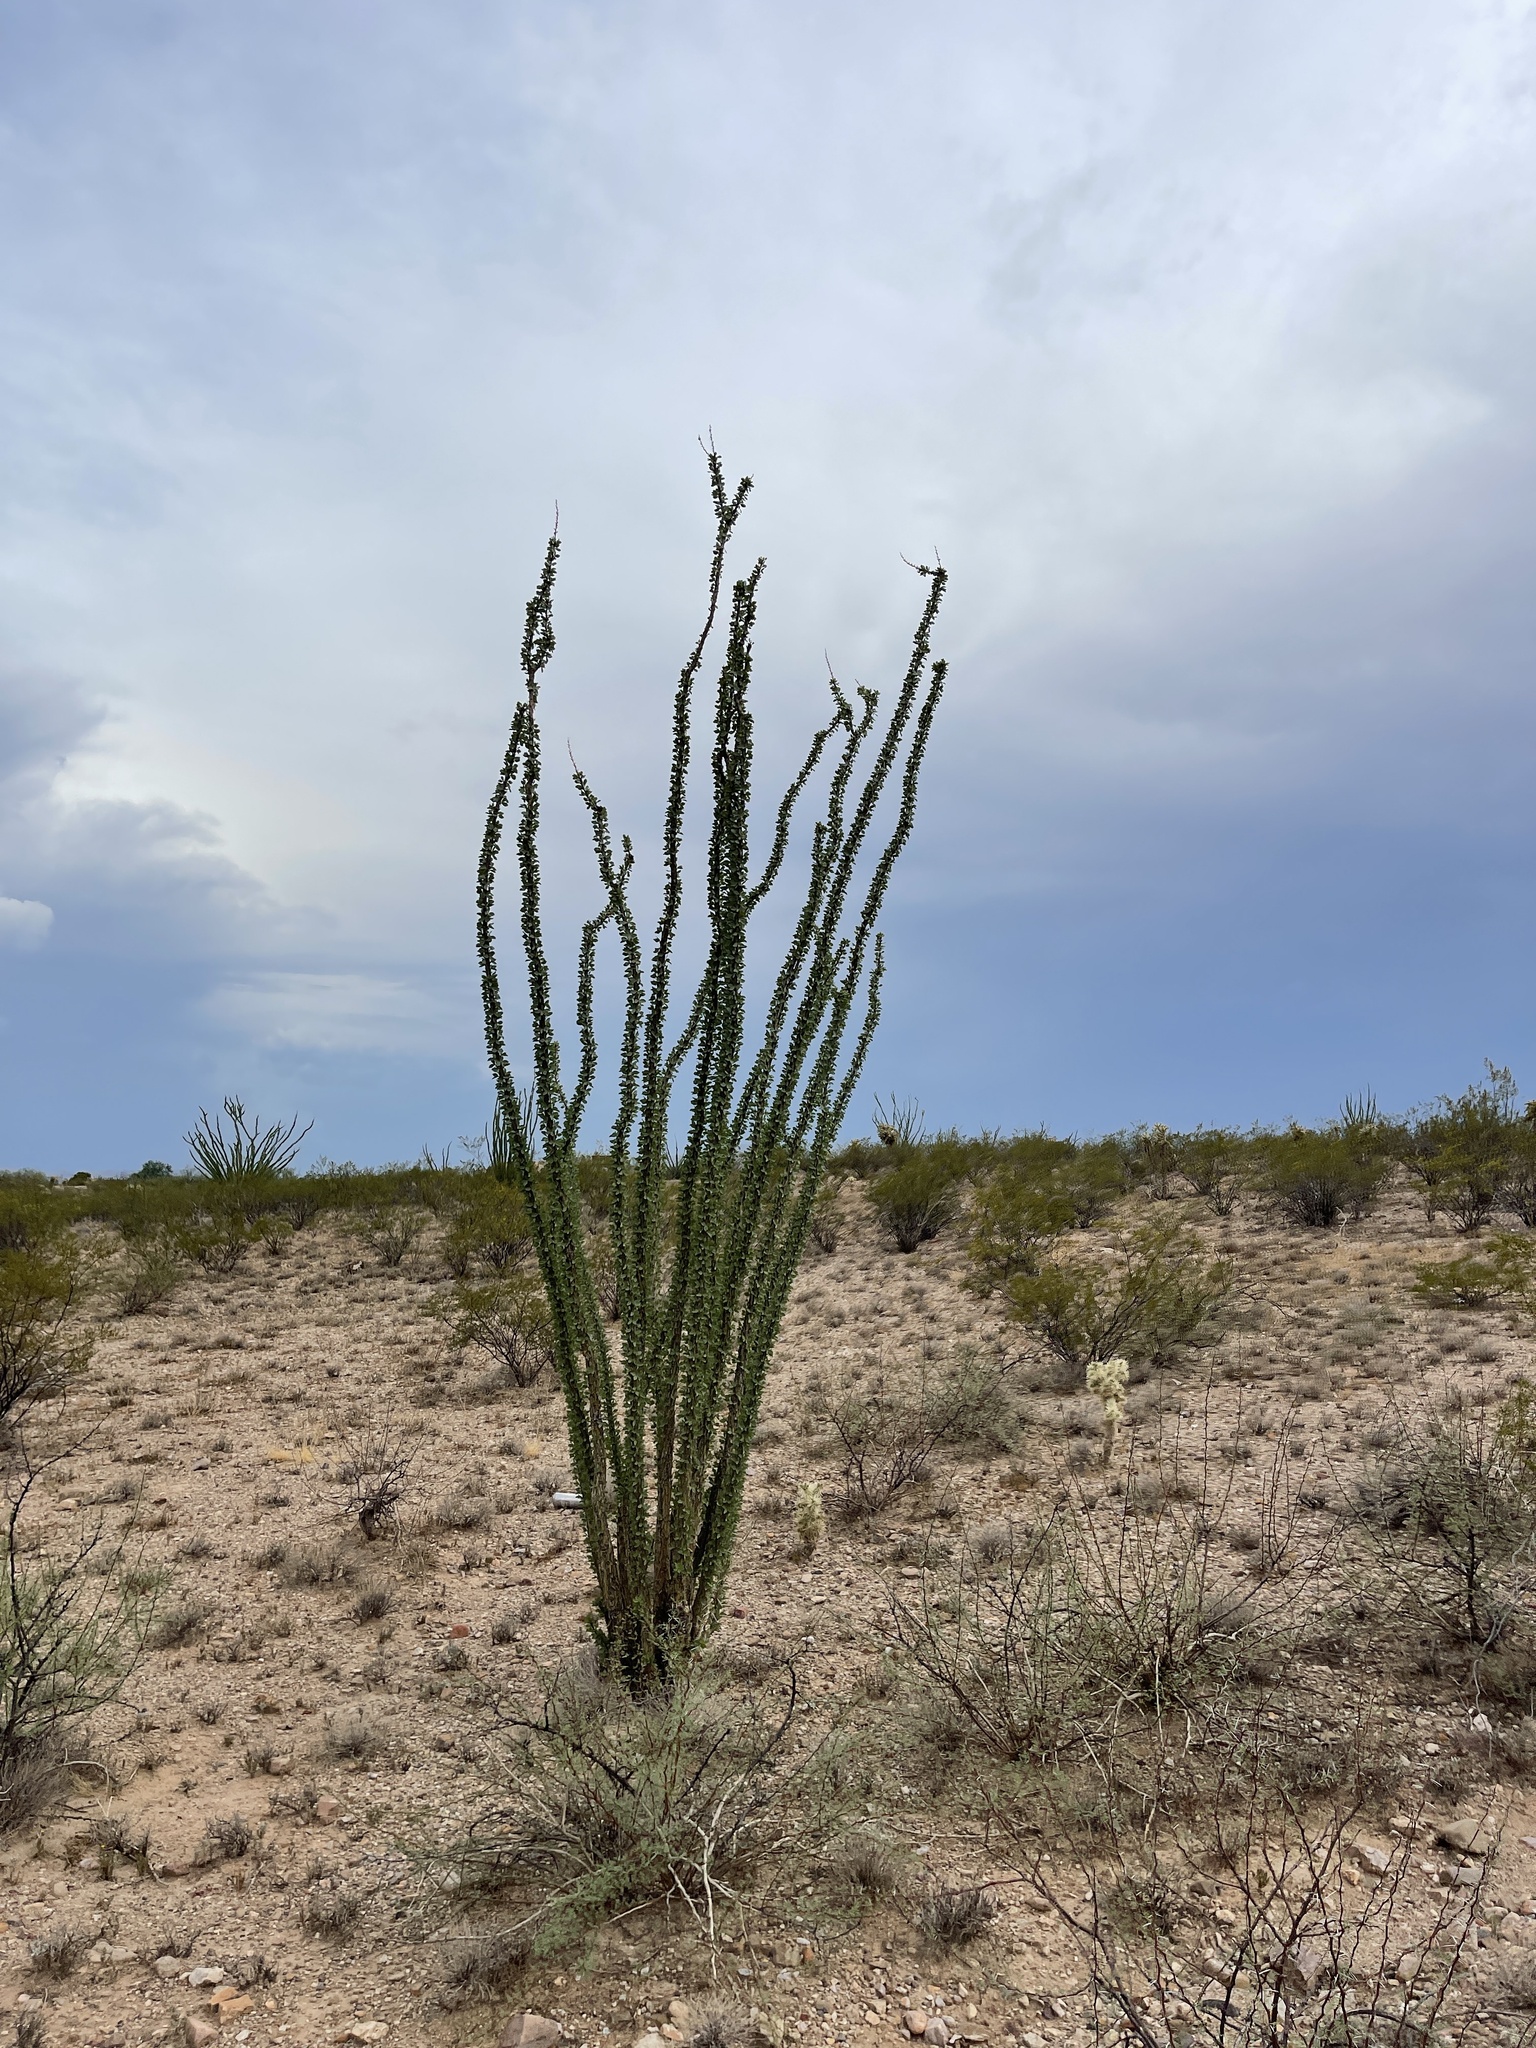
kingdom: Plantae
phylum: Tracheophyta
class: Magnoliopsida
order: Ericales
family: Fouquieriaceae
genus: Fouquieria
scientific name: Fouquieria splendens
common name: Vine-cactus
